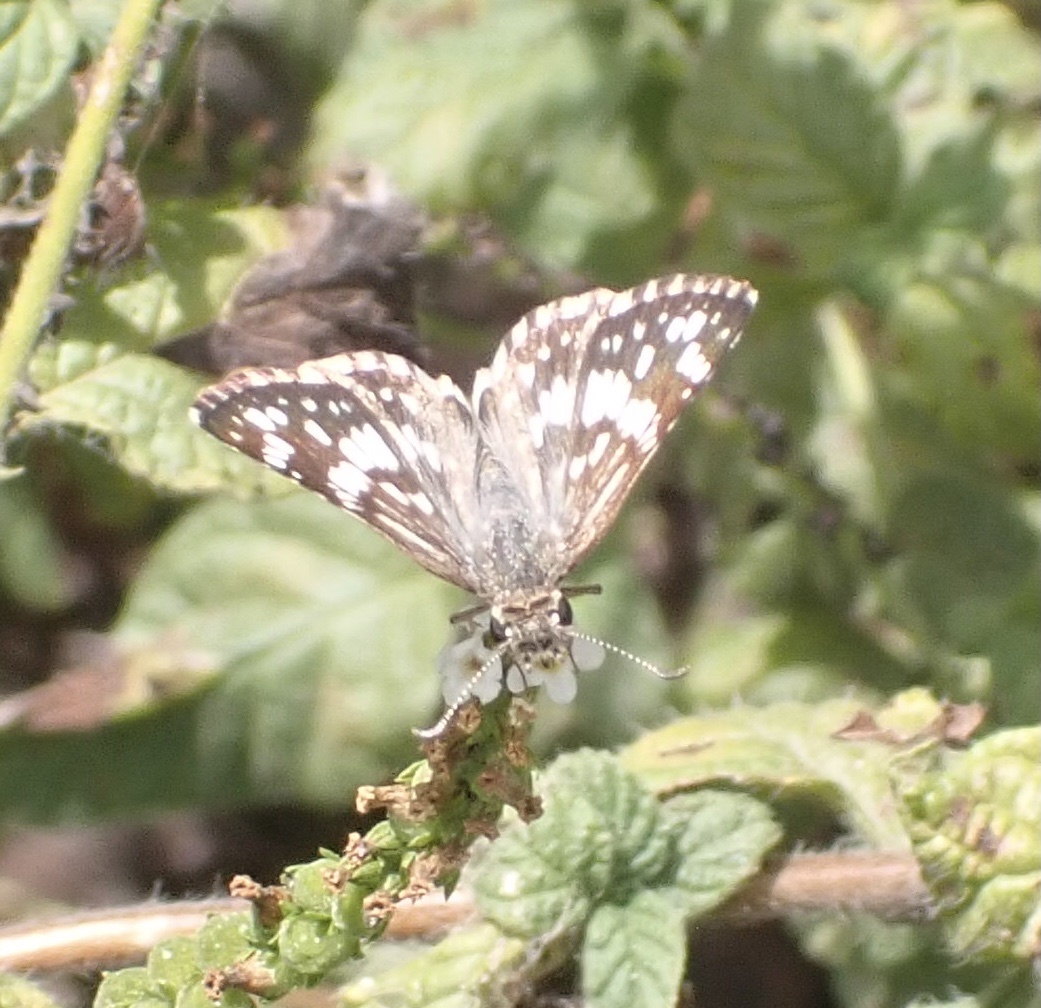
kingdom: Animalia
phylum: Arthropoda
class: Insecta
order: Lepidoptera
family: Hesperiidae
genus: Burnsius
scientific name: Burnsius adepta
